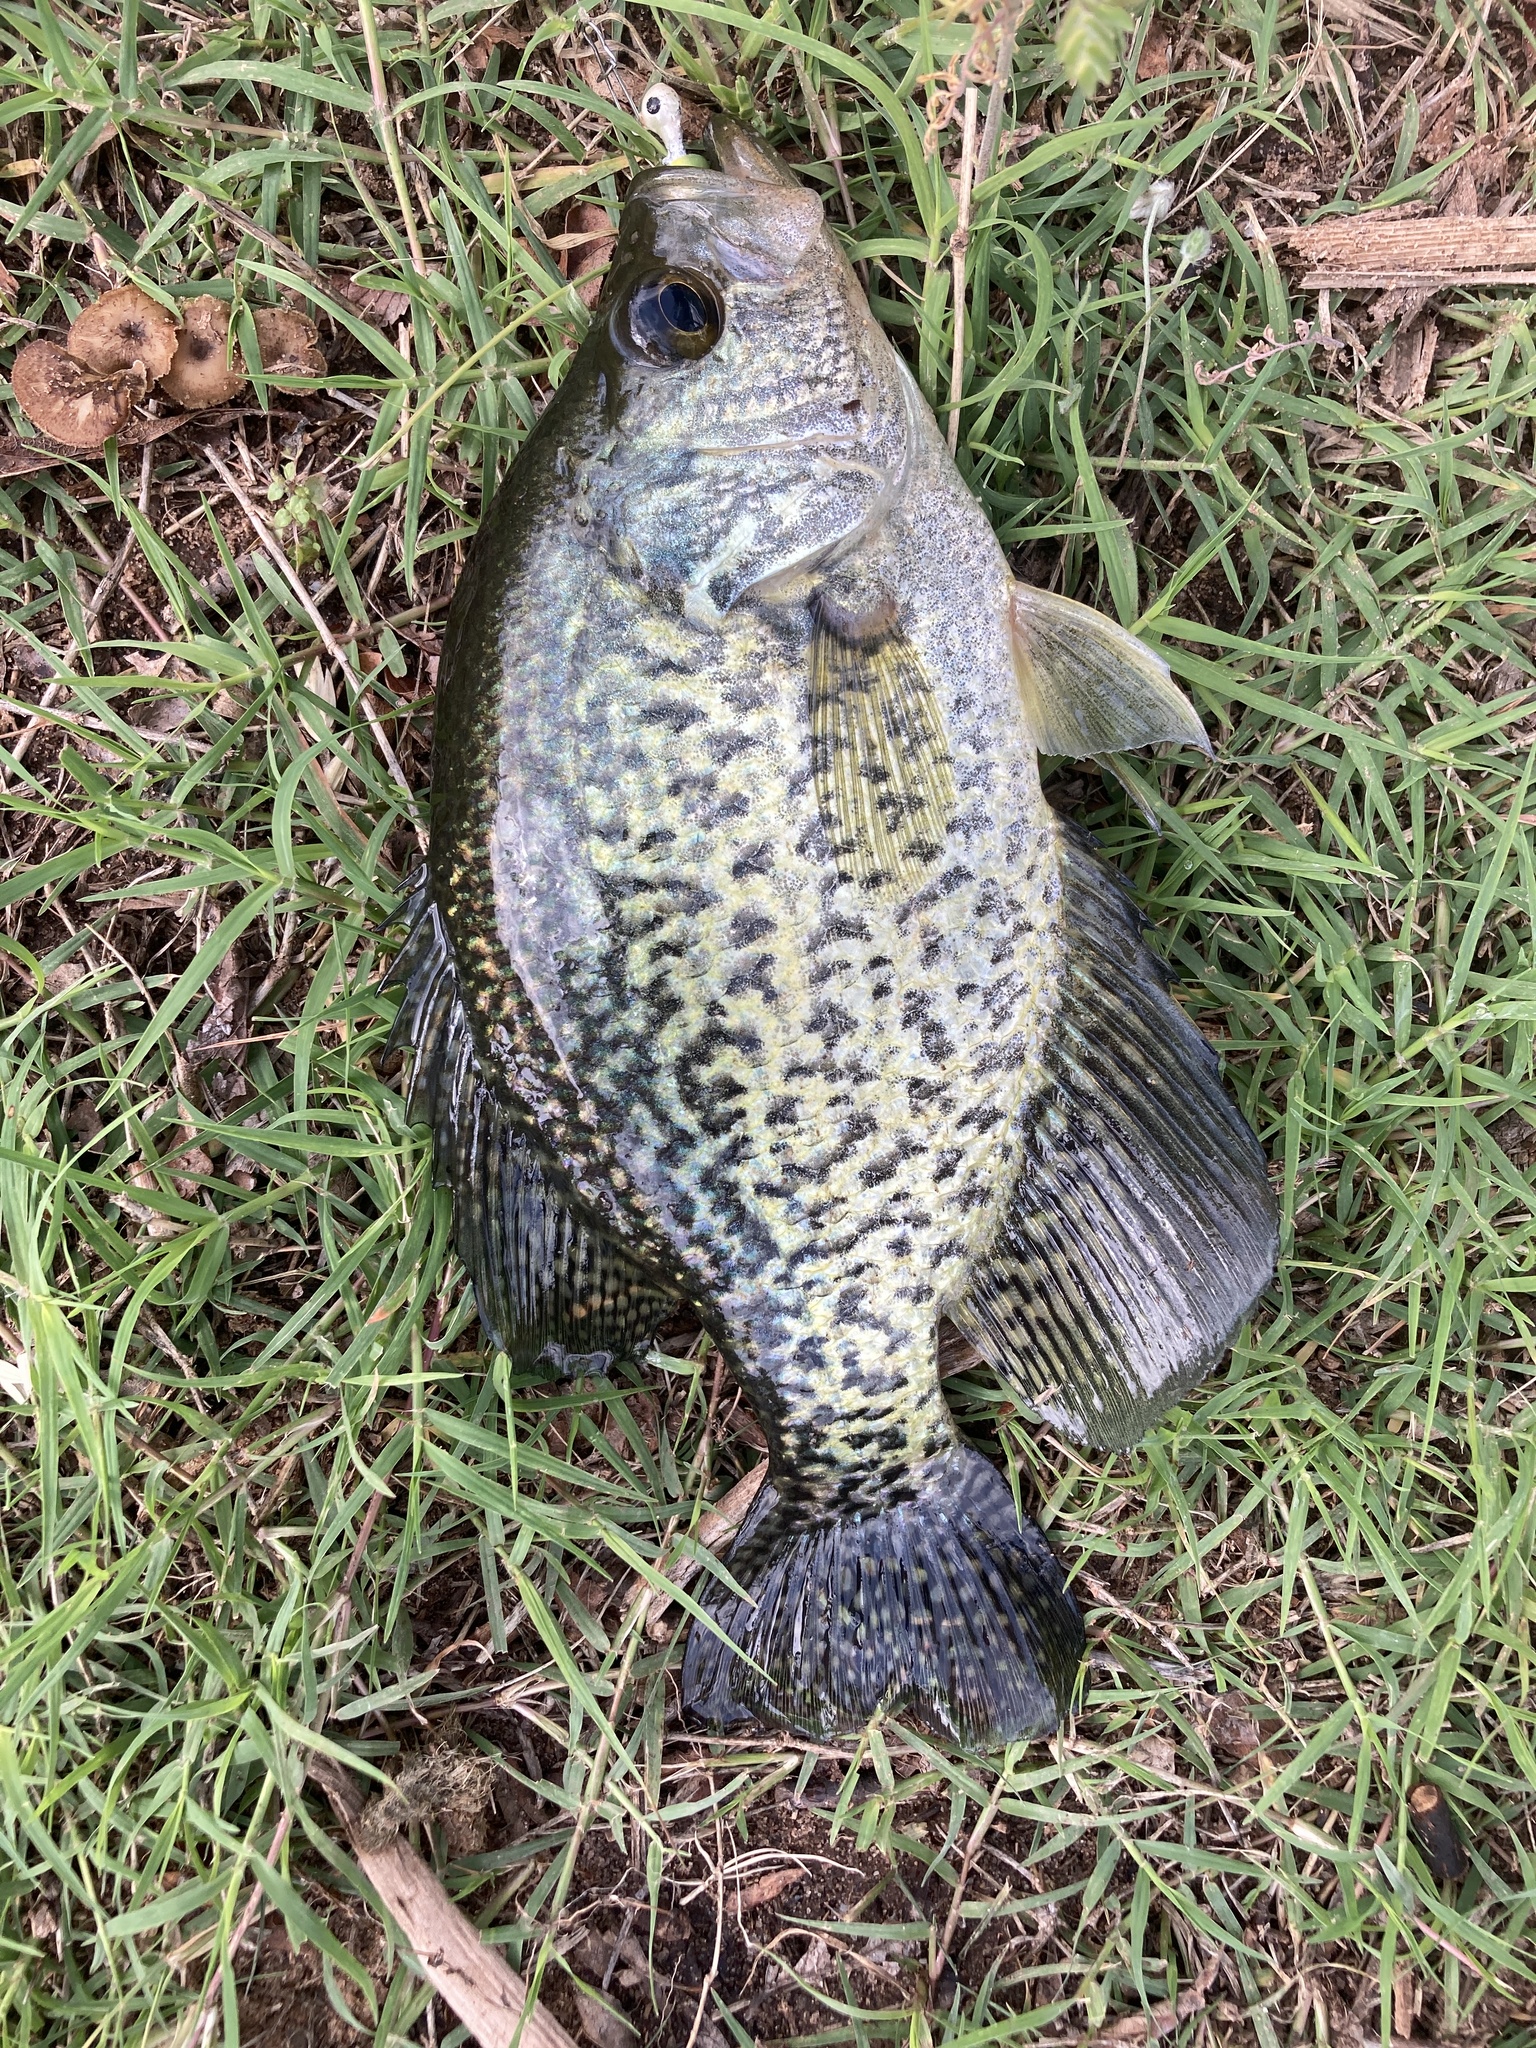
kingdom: Animalia
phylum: Chordata
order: Perciformes
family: Centrarchidae
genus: Pomoxis
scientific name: Pomoxis nigromaculatus
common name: Black crappie
